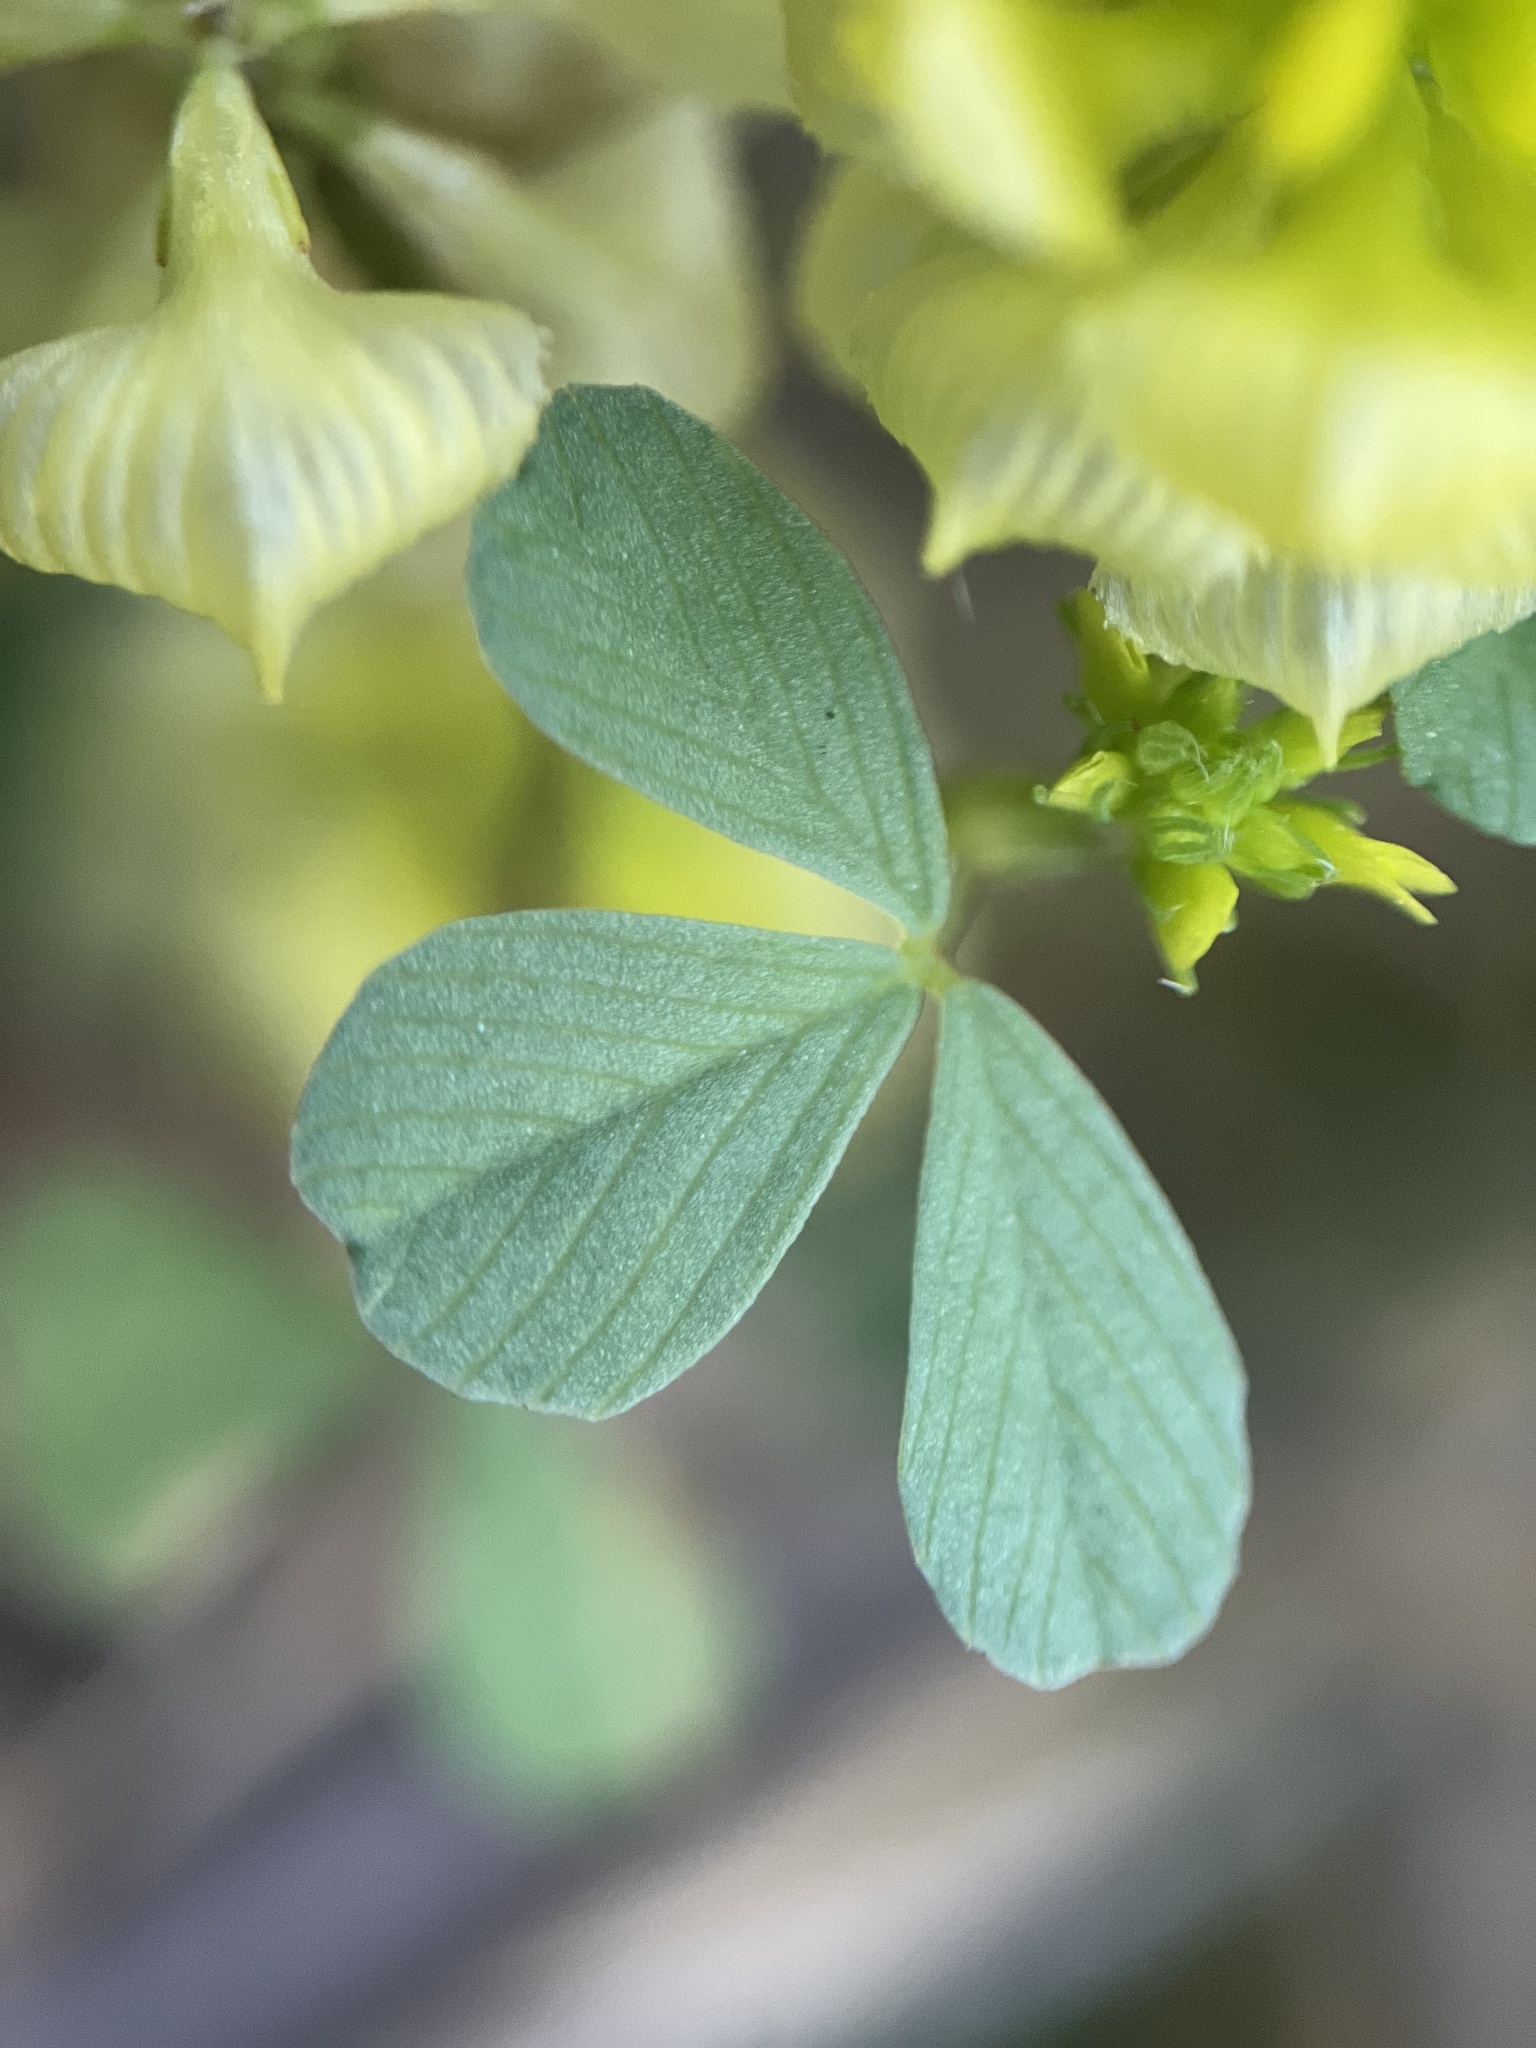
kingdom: Plantae
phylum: Tracheophyta
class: Magnoliopsida
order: Fabales
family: Fabaceae
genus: Trifolium
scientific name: Trifolium campestre
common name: Field clover
